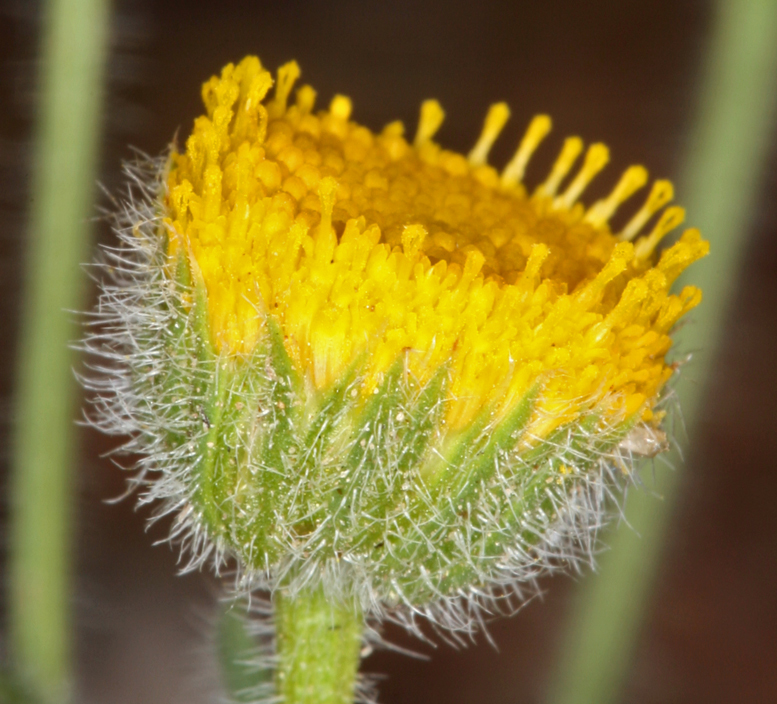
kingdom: Plantae
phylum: Tracheophyta
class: Magnoliopsida
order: Asterales
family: Asteraceae
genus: Erigeron
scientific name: Erigeron aphanactis
